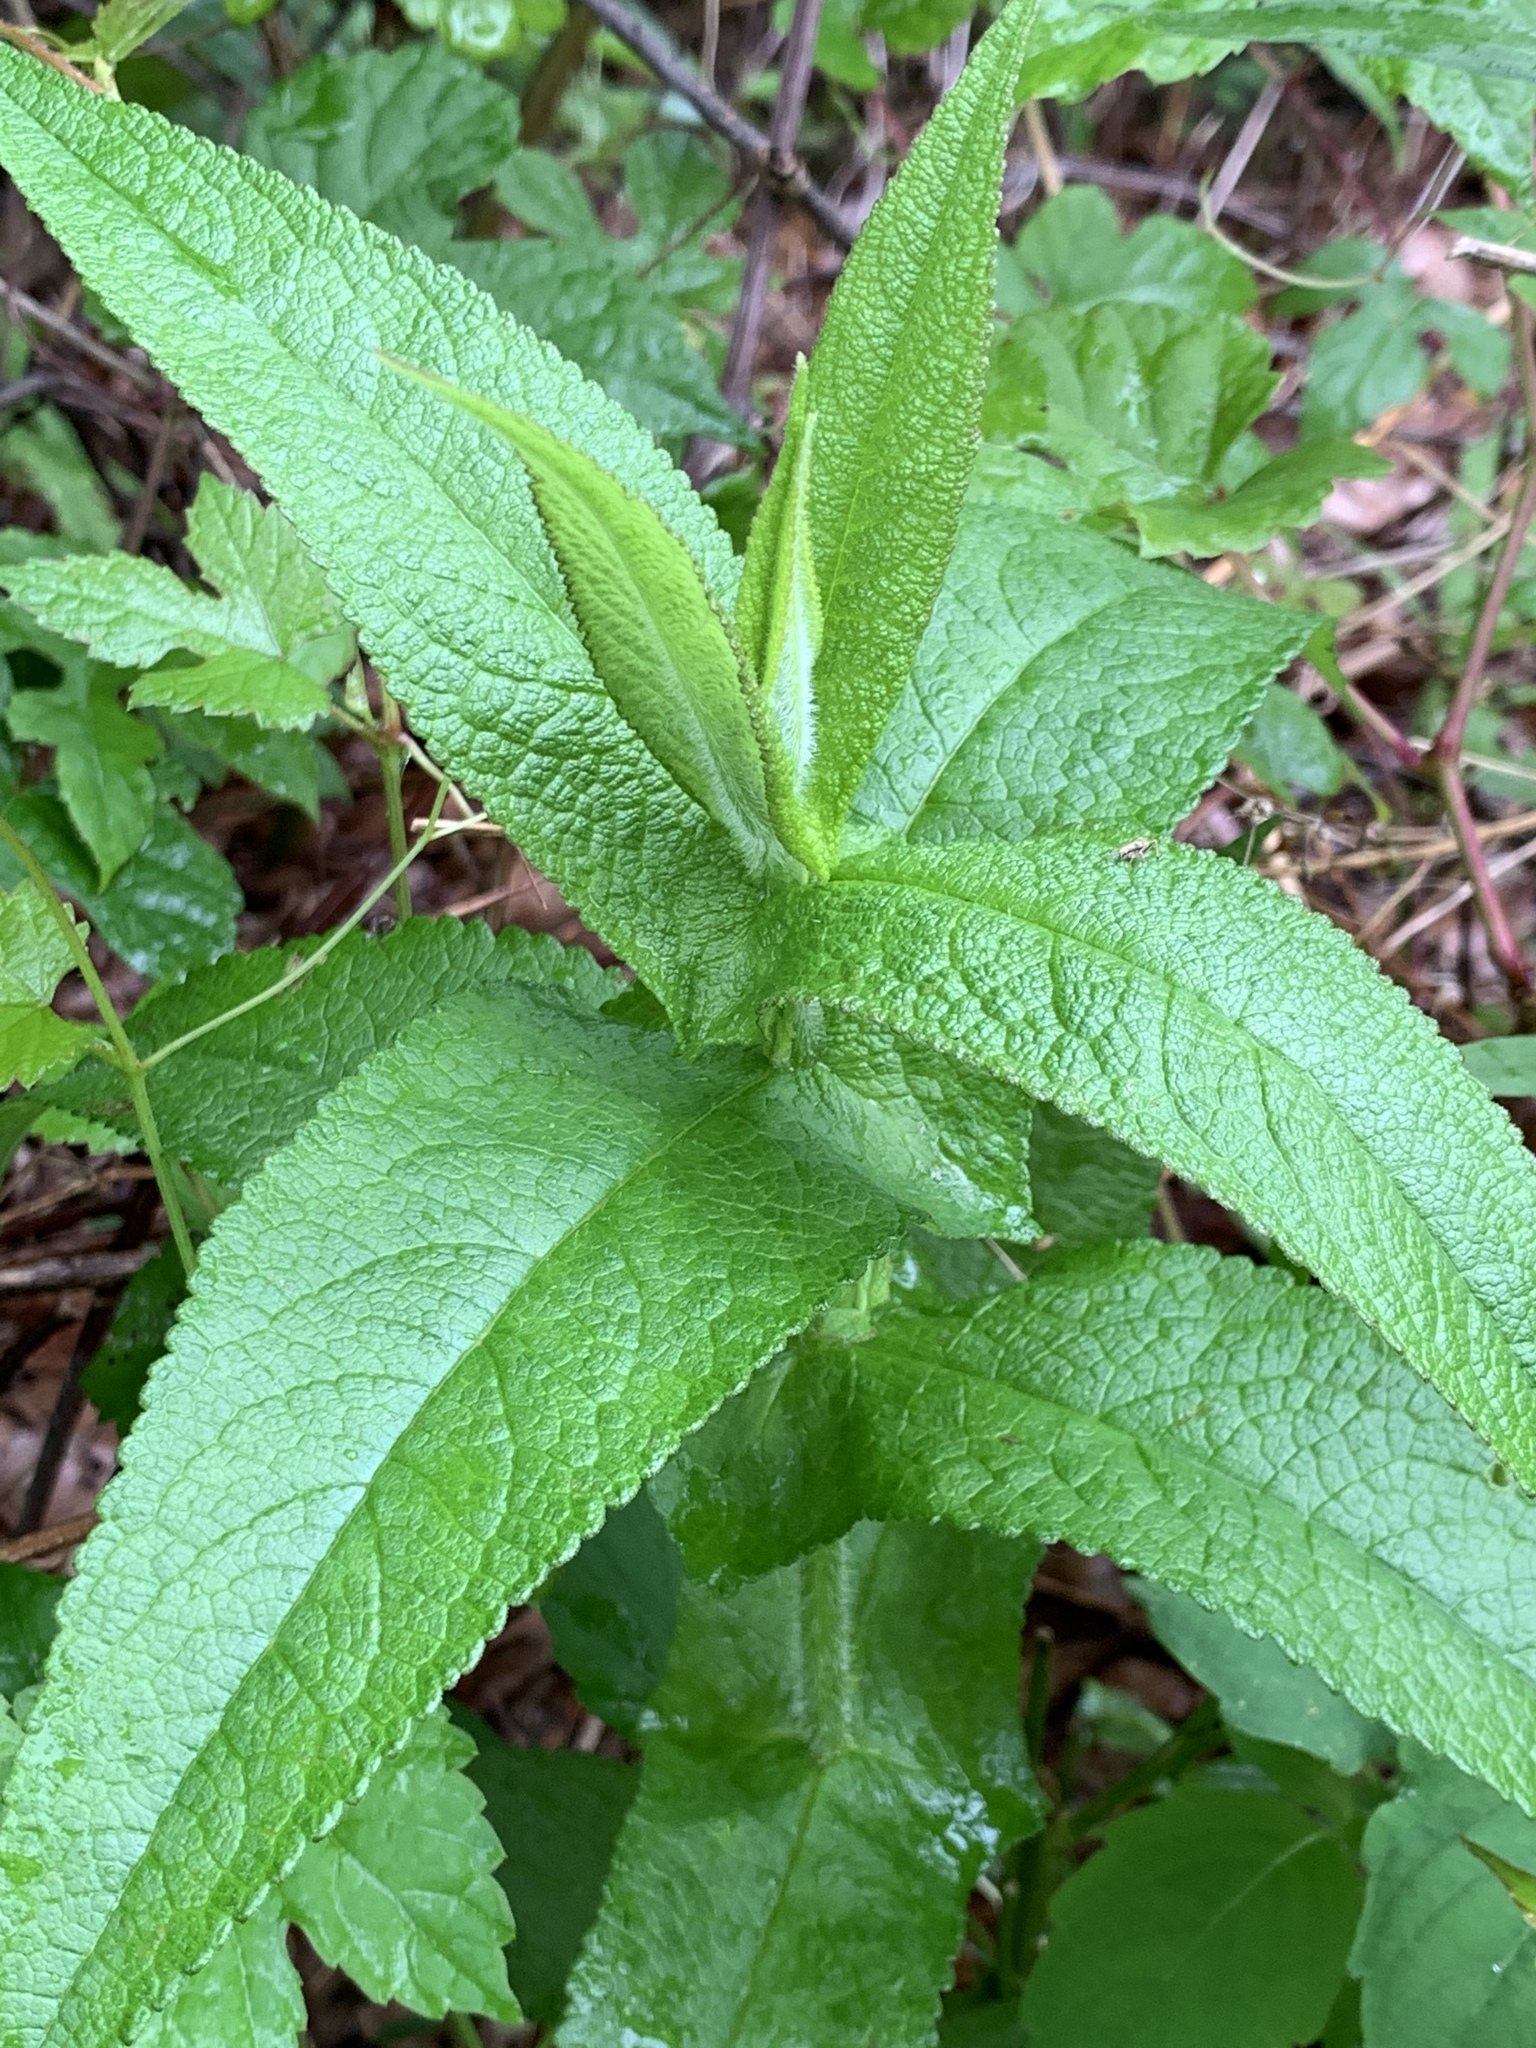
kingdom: Plantae
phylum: Tracheophyta
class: Magnoliopsida
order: Asterales
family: Asteraceae
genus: Eupatorium
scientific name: Eupatorium perfoliatum
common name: Boneset
